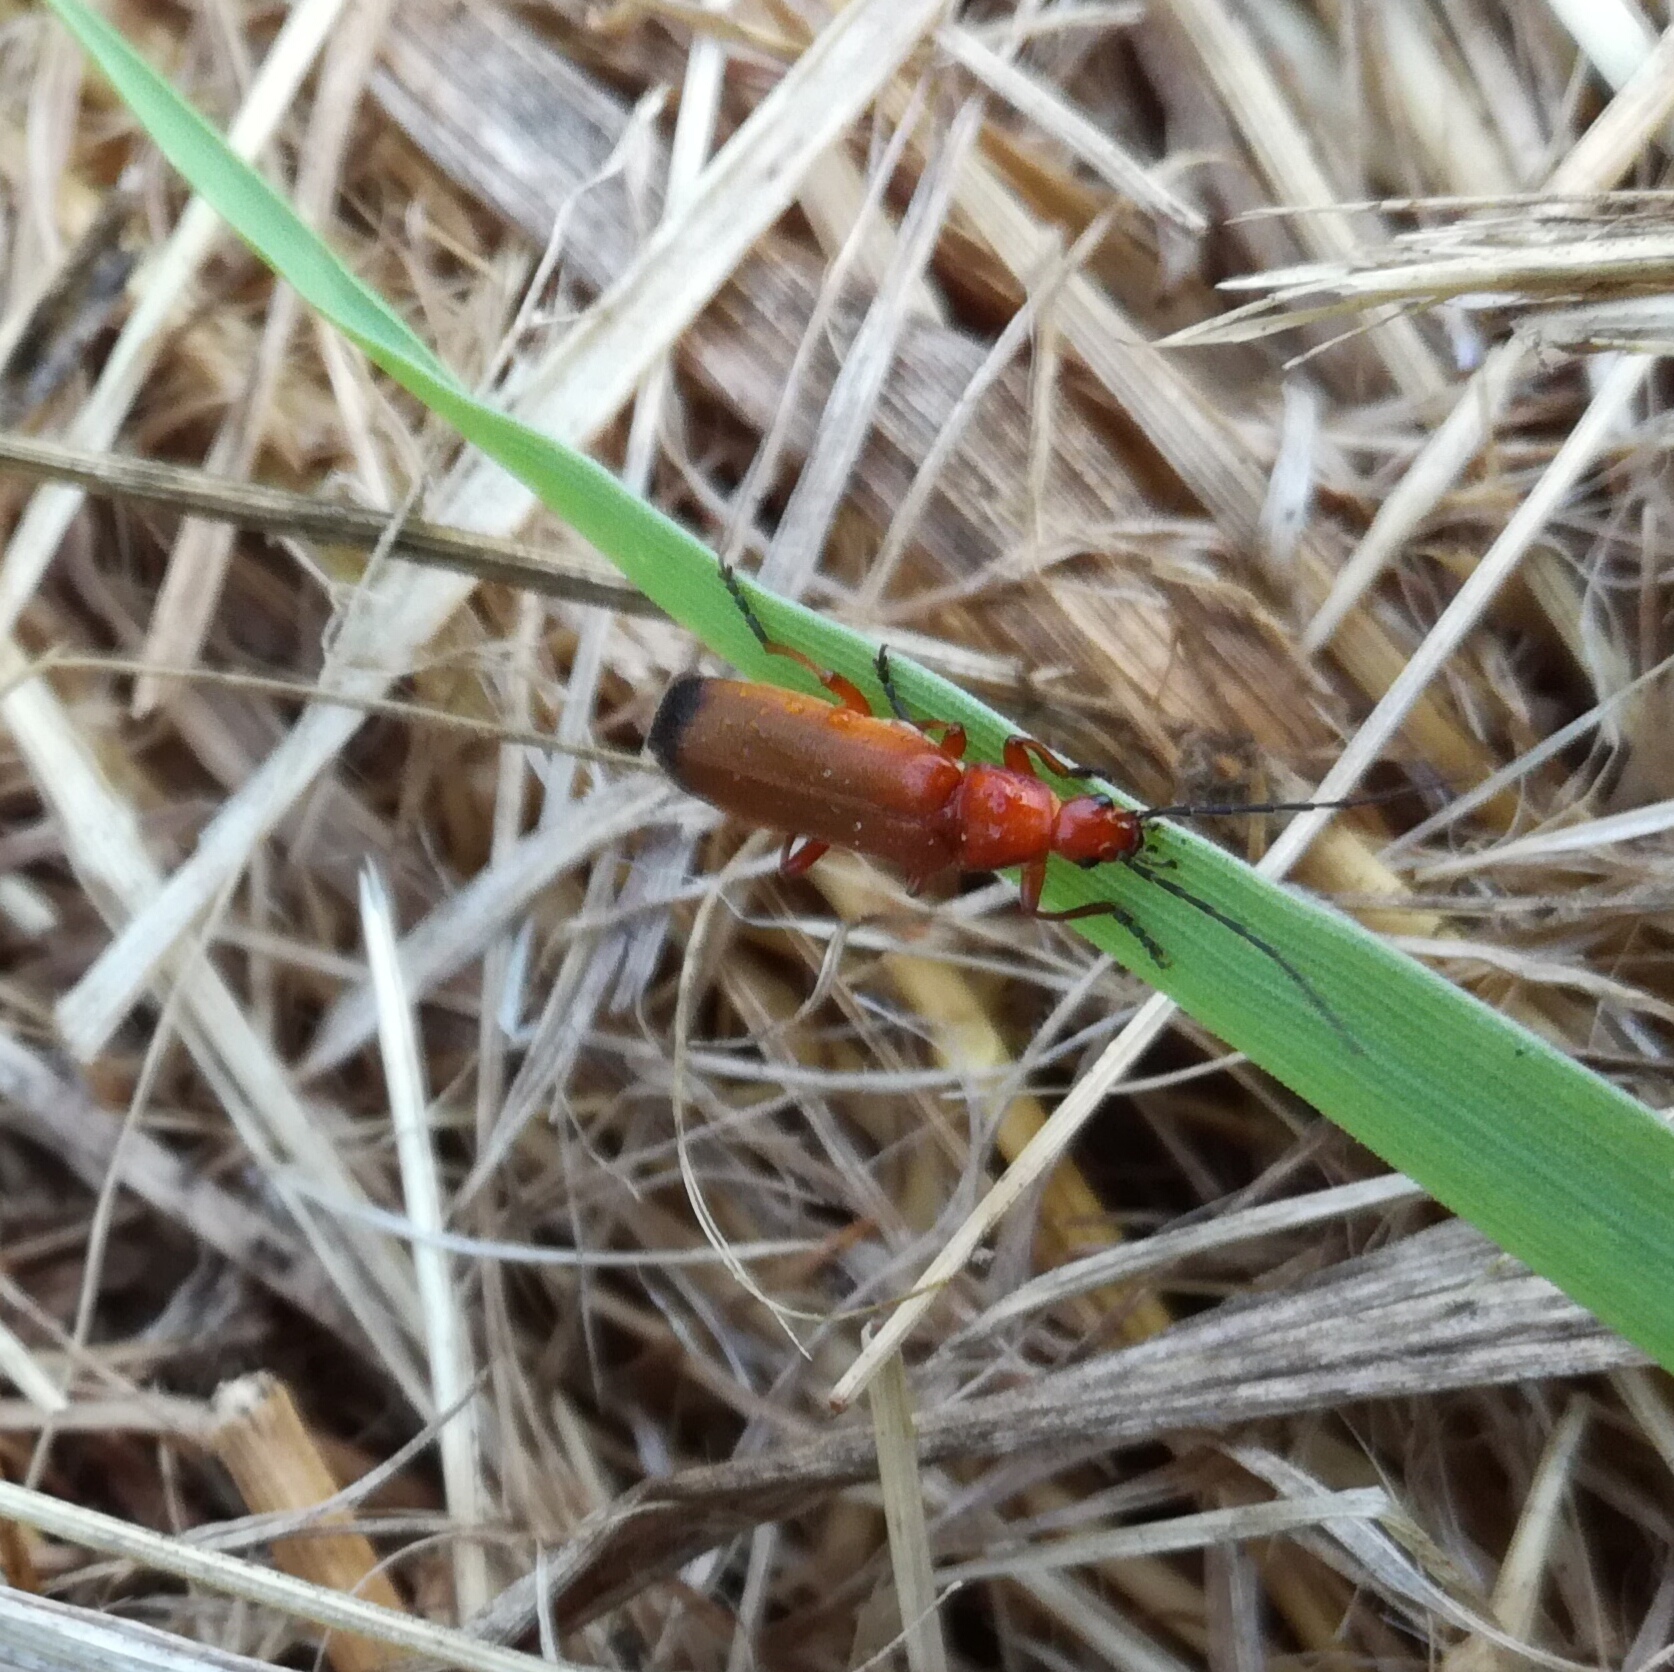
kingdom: Animalia
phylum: Arthropoda
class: Insecta
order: Coleoptera
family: Cantharidae
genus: Rhagonycha
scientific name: Rhagonycha fulva
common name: Common red soldier beetle
